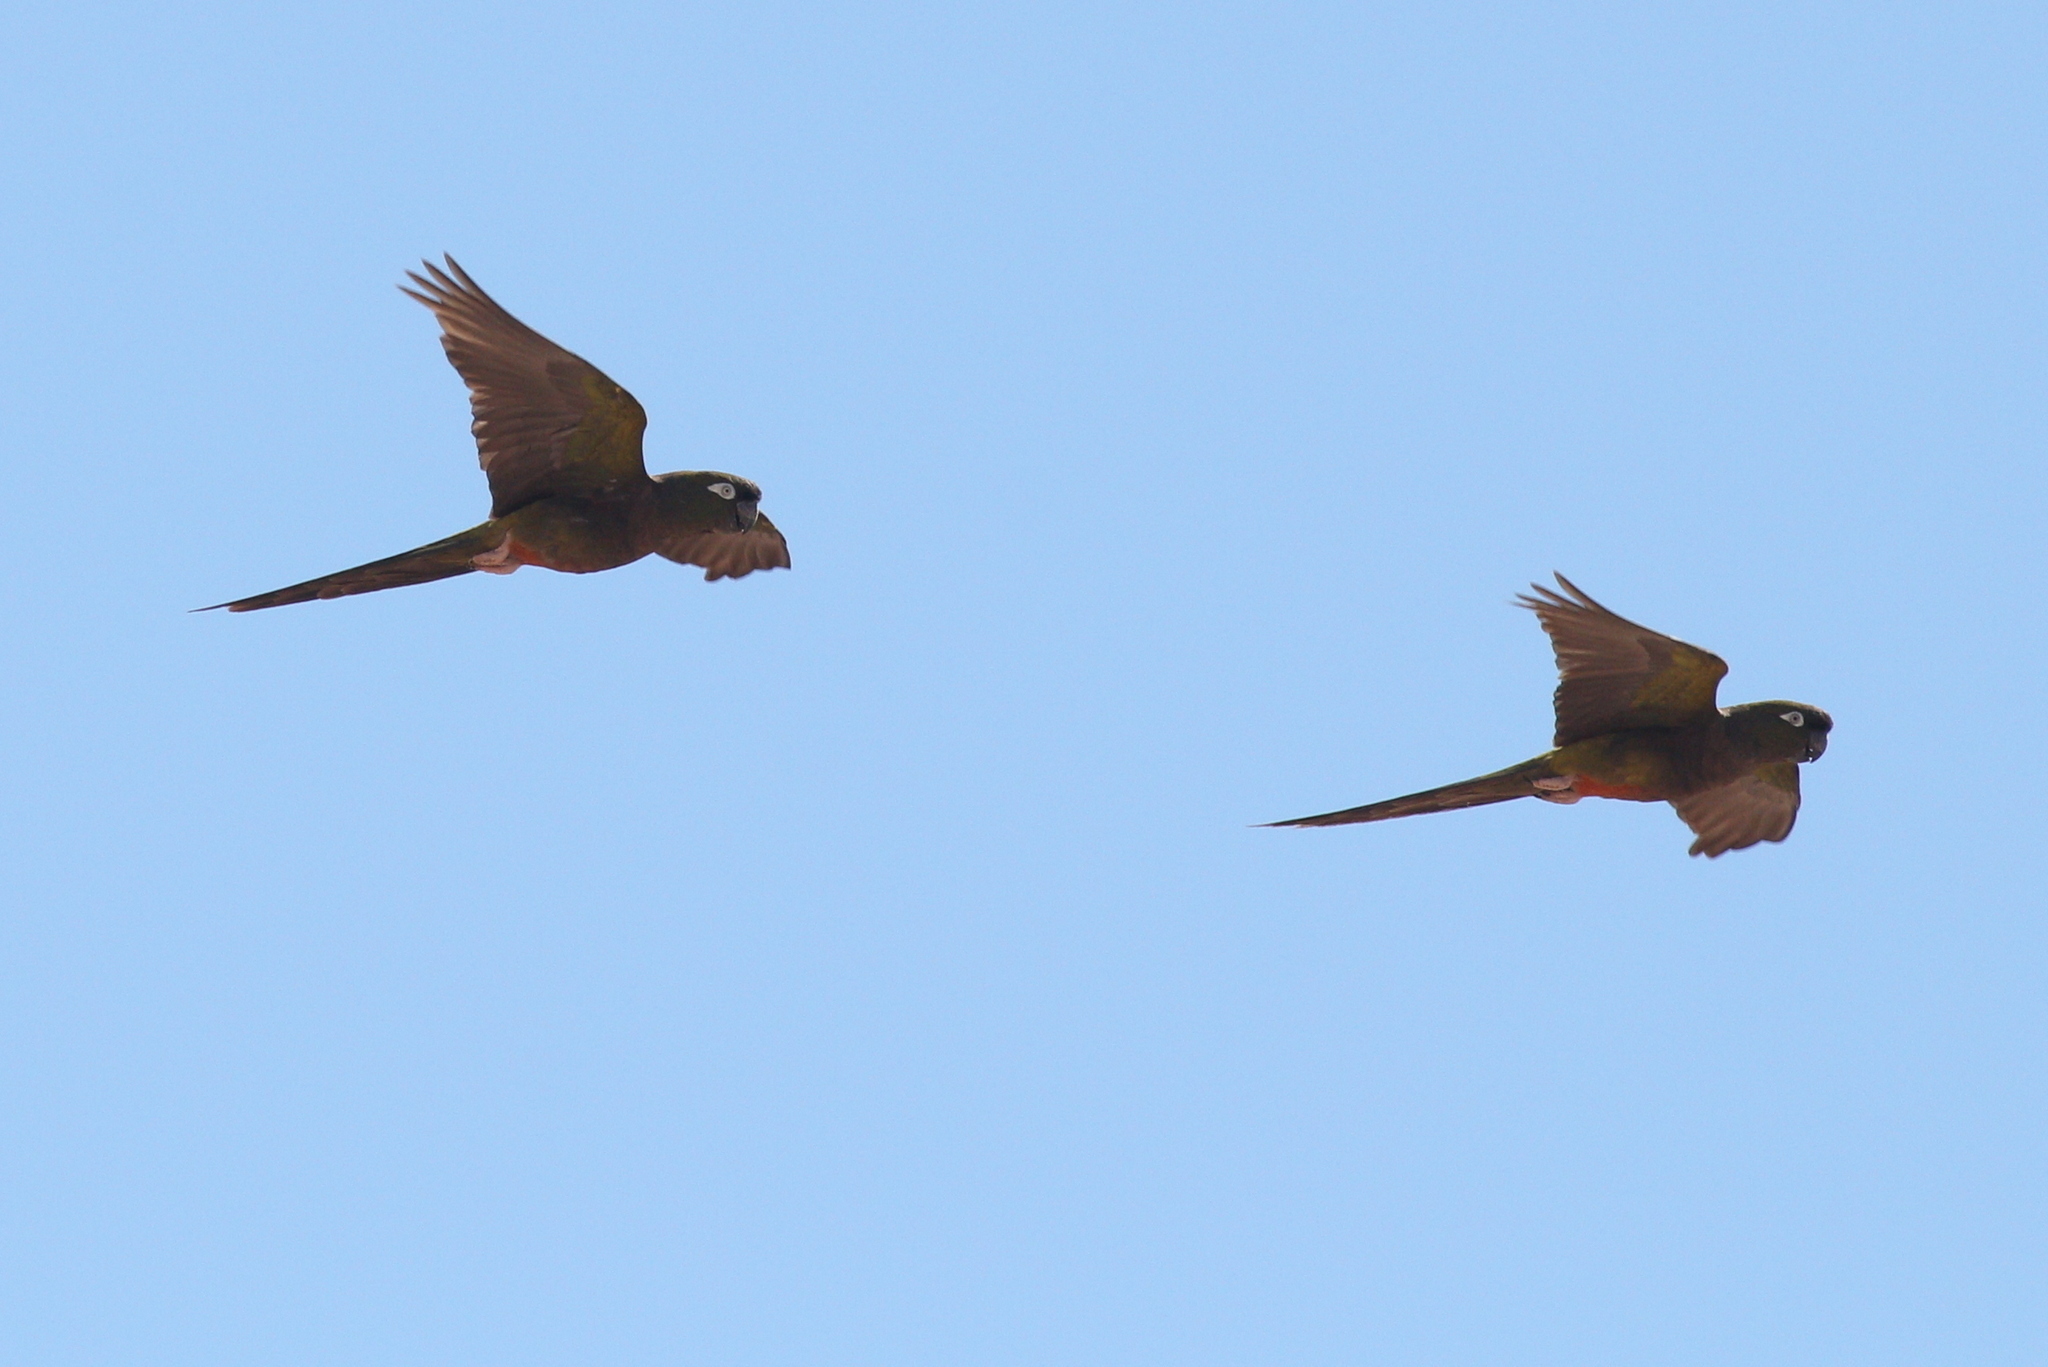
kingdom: Animalia
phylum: Chordata
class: Aves
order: Psittaciformes
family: Psittacidae
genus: Cyanoliseus
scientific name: Cyanoliseus patagonus
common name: Burrowing parrot
